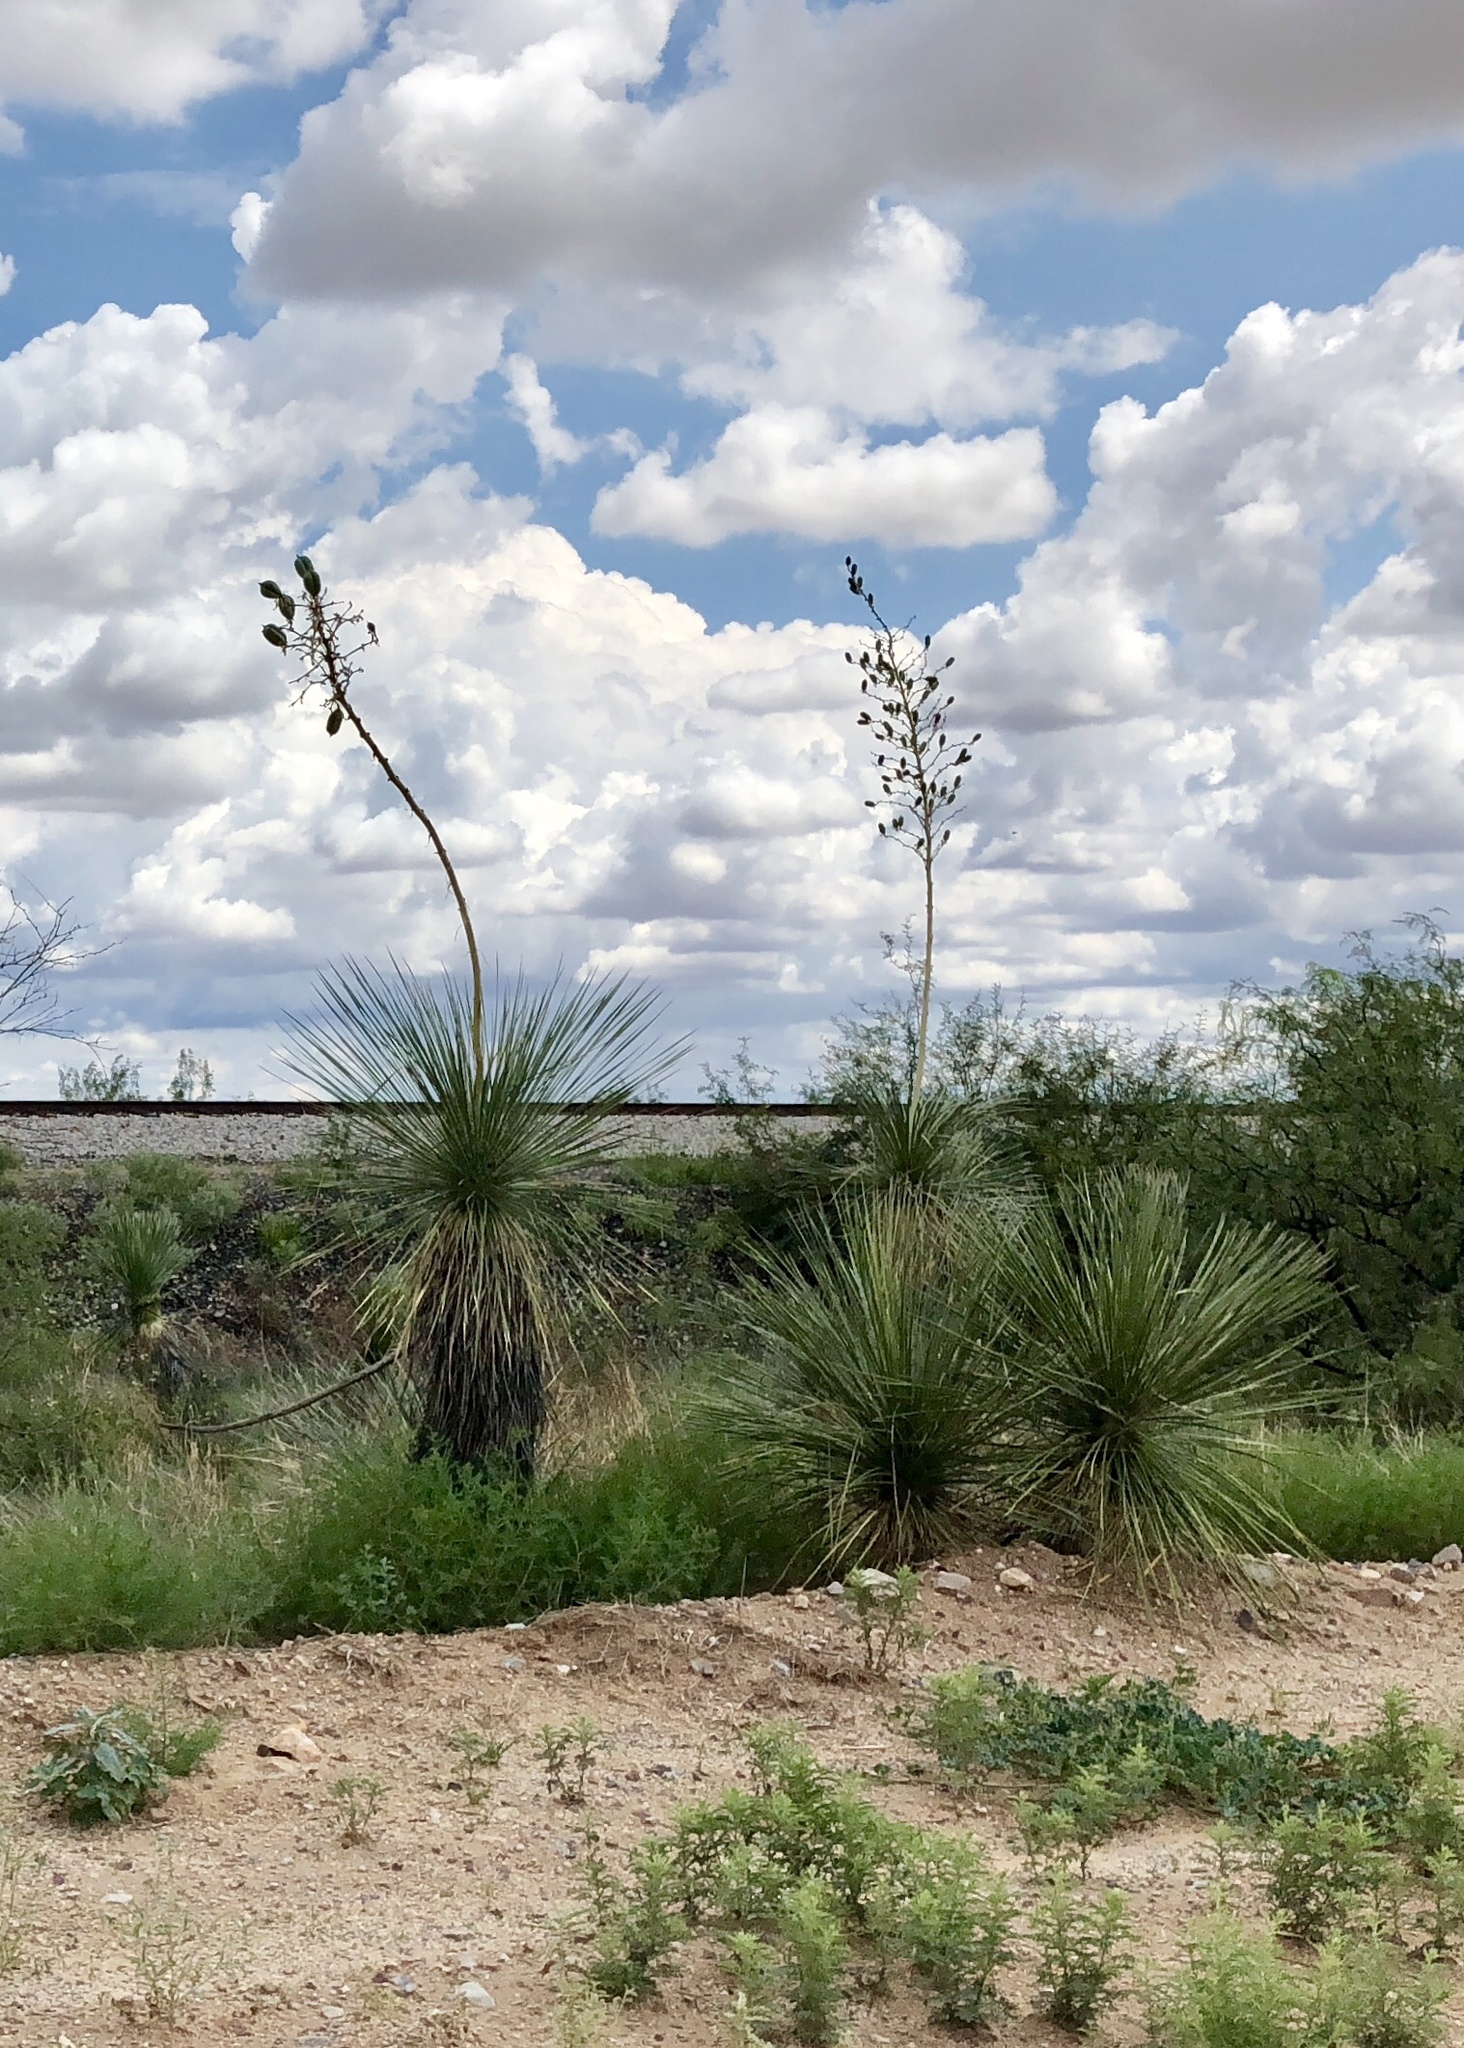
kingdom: Plantae
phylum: Tracheophyta
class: Liliopsida
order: Asparagales
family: Asparagaceae
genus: Yucca
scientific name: Yucca elata
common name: Palmella
